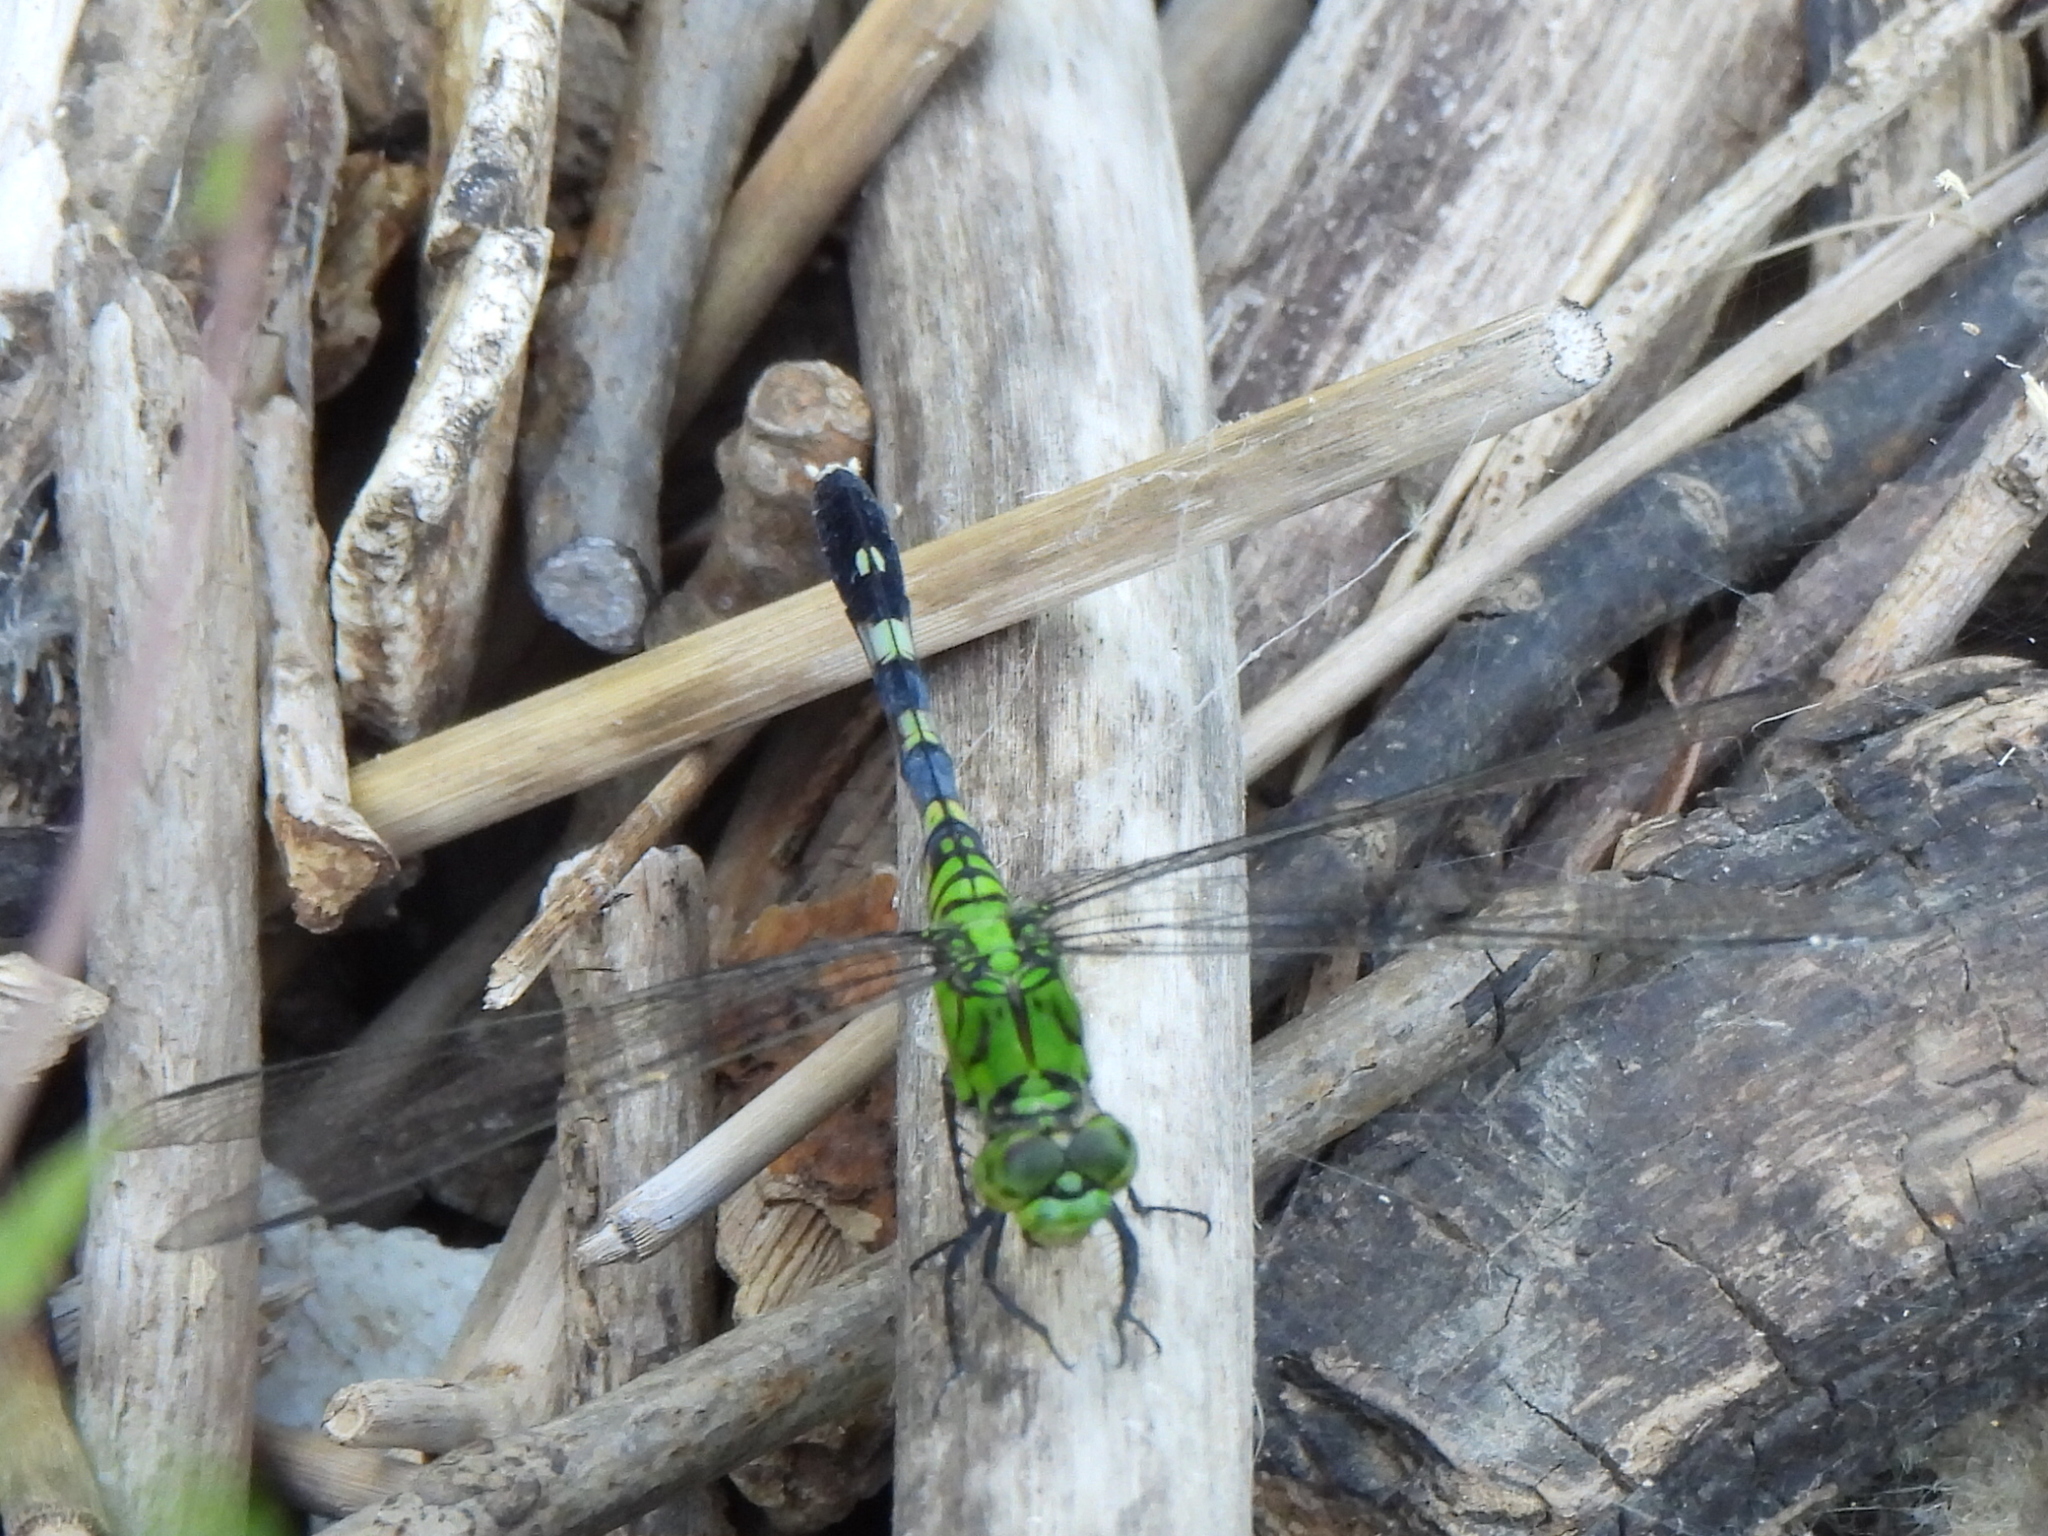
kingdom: Animalia
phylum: Arthropoda
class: Insecta
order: Odonata
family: Libellulidae
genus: Erythemis
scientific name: Erythemis simplicicollis
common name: Eastern pondhawk
